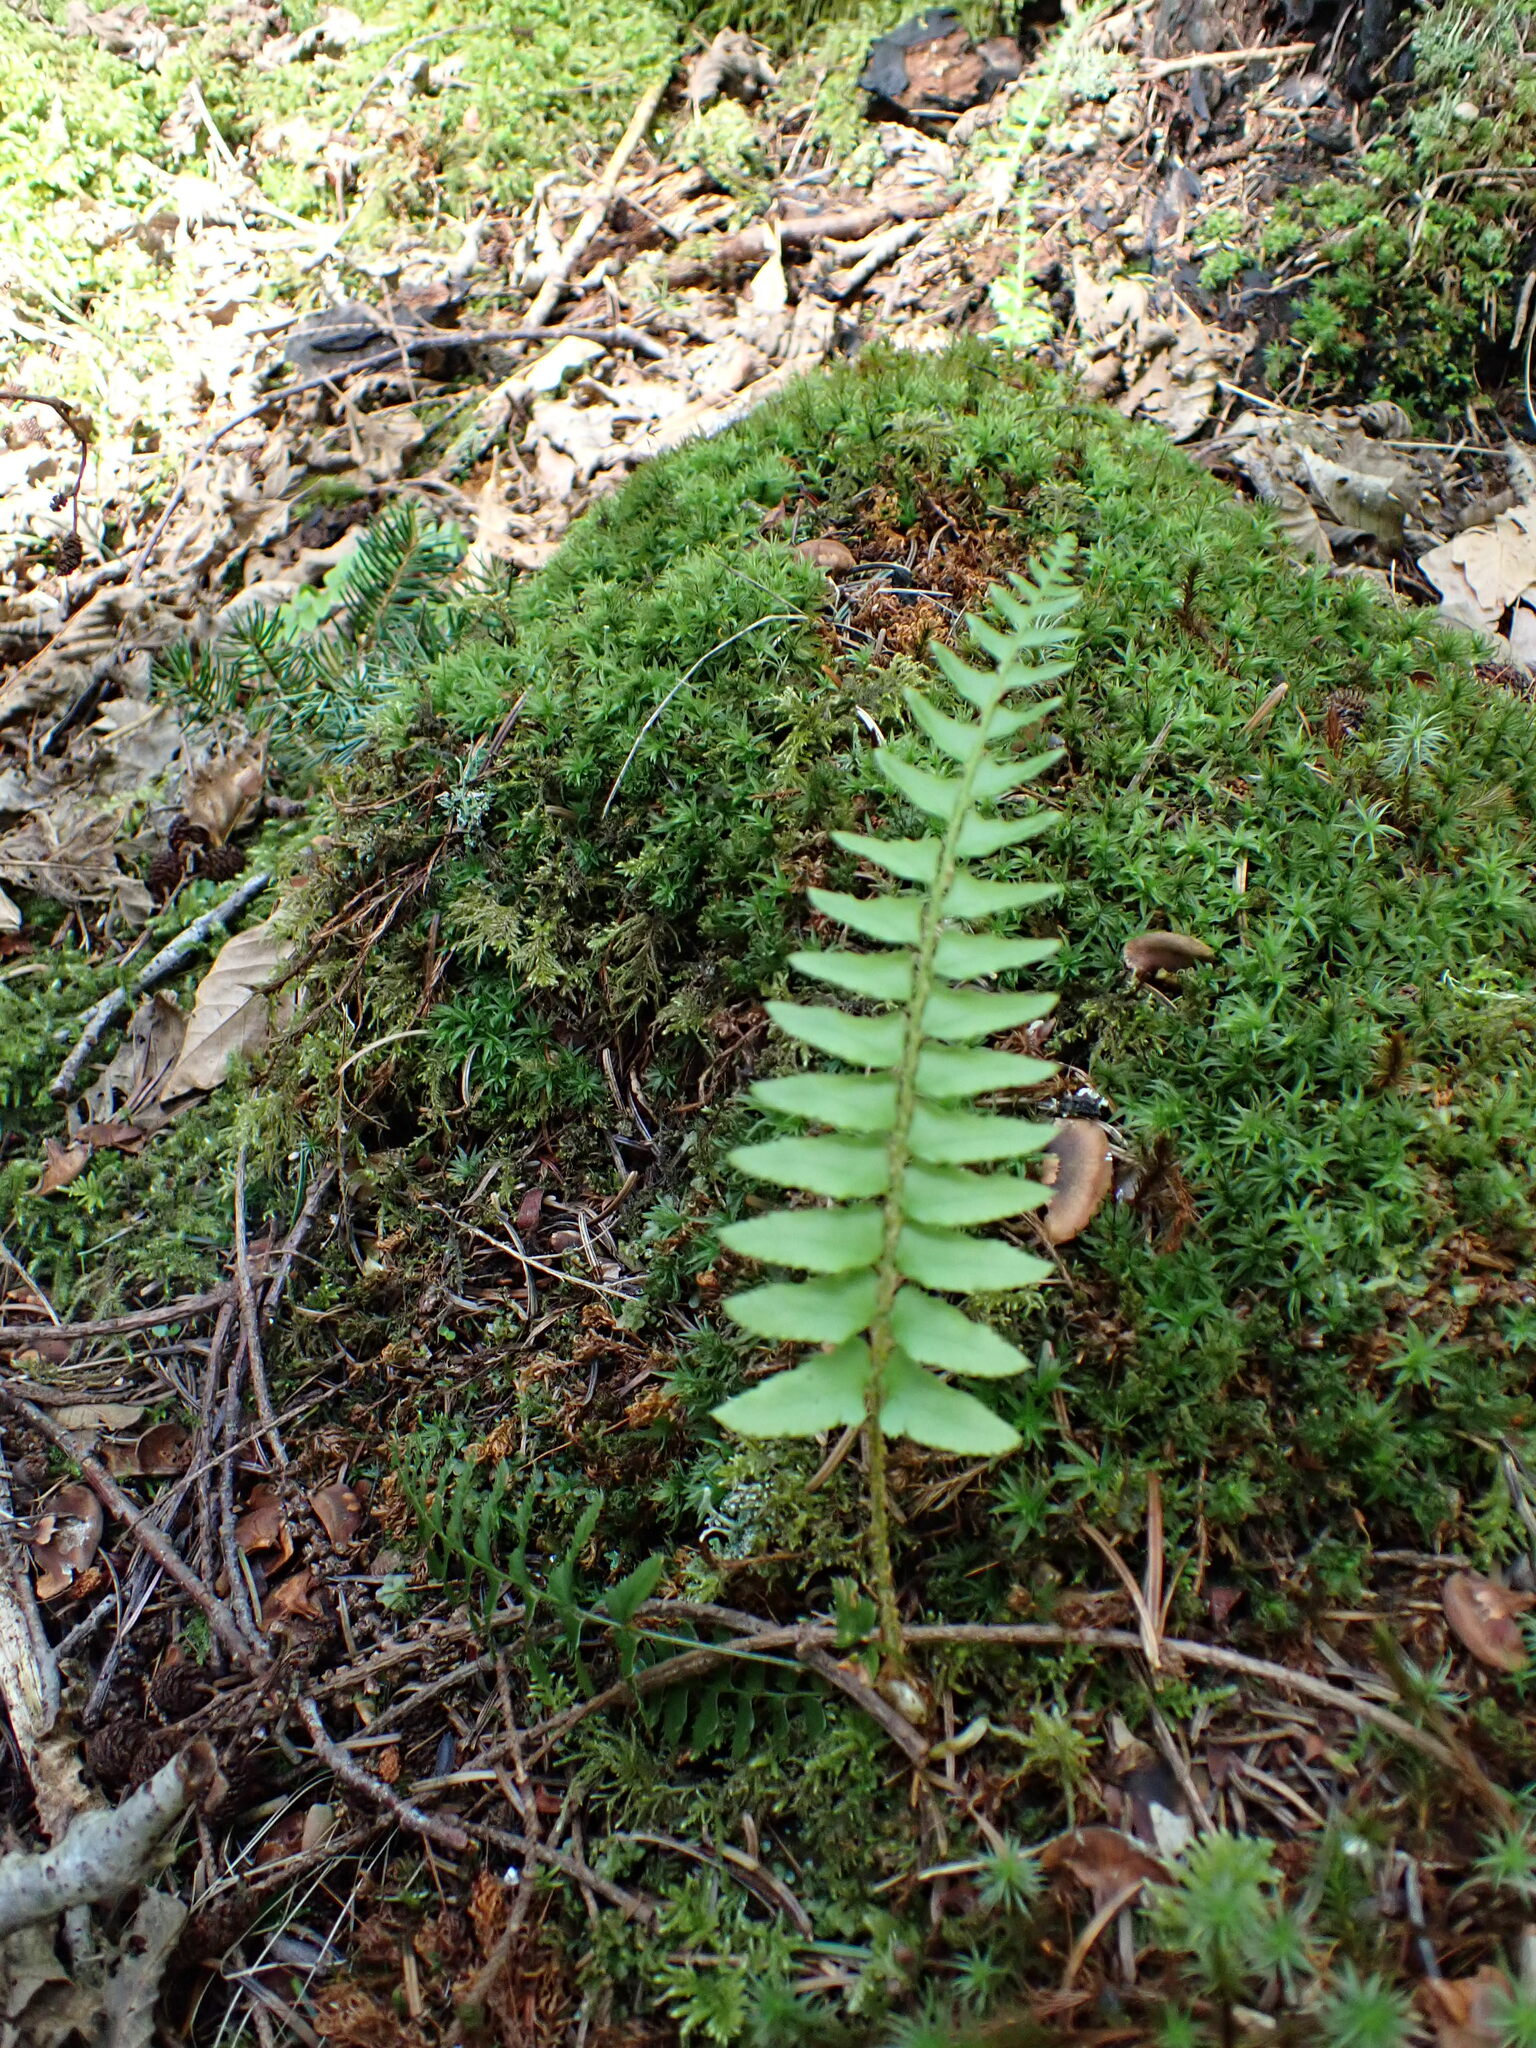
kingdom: Plantae
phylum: Tracheophyta
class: Polypodiopsida
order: Polypodiales
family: Dryopteridaceae
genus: Polystichum
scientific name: Polystichum munitum
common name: Western sword-fern
